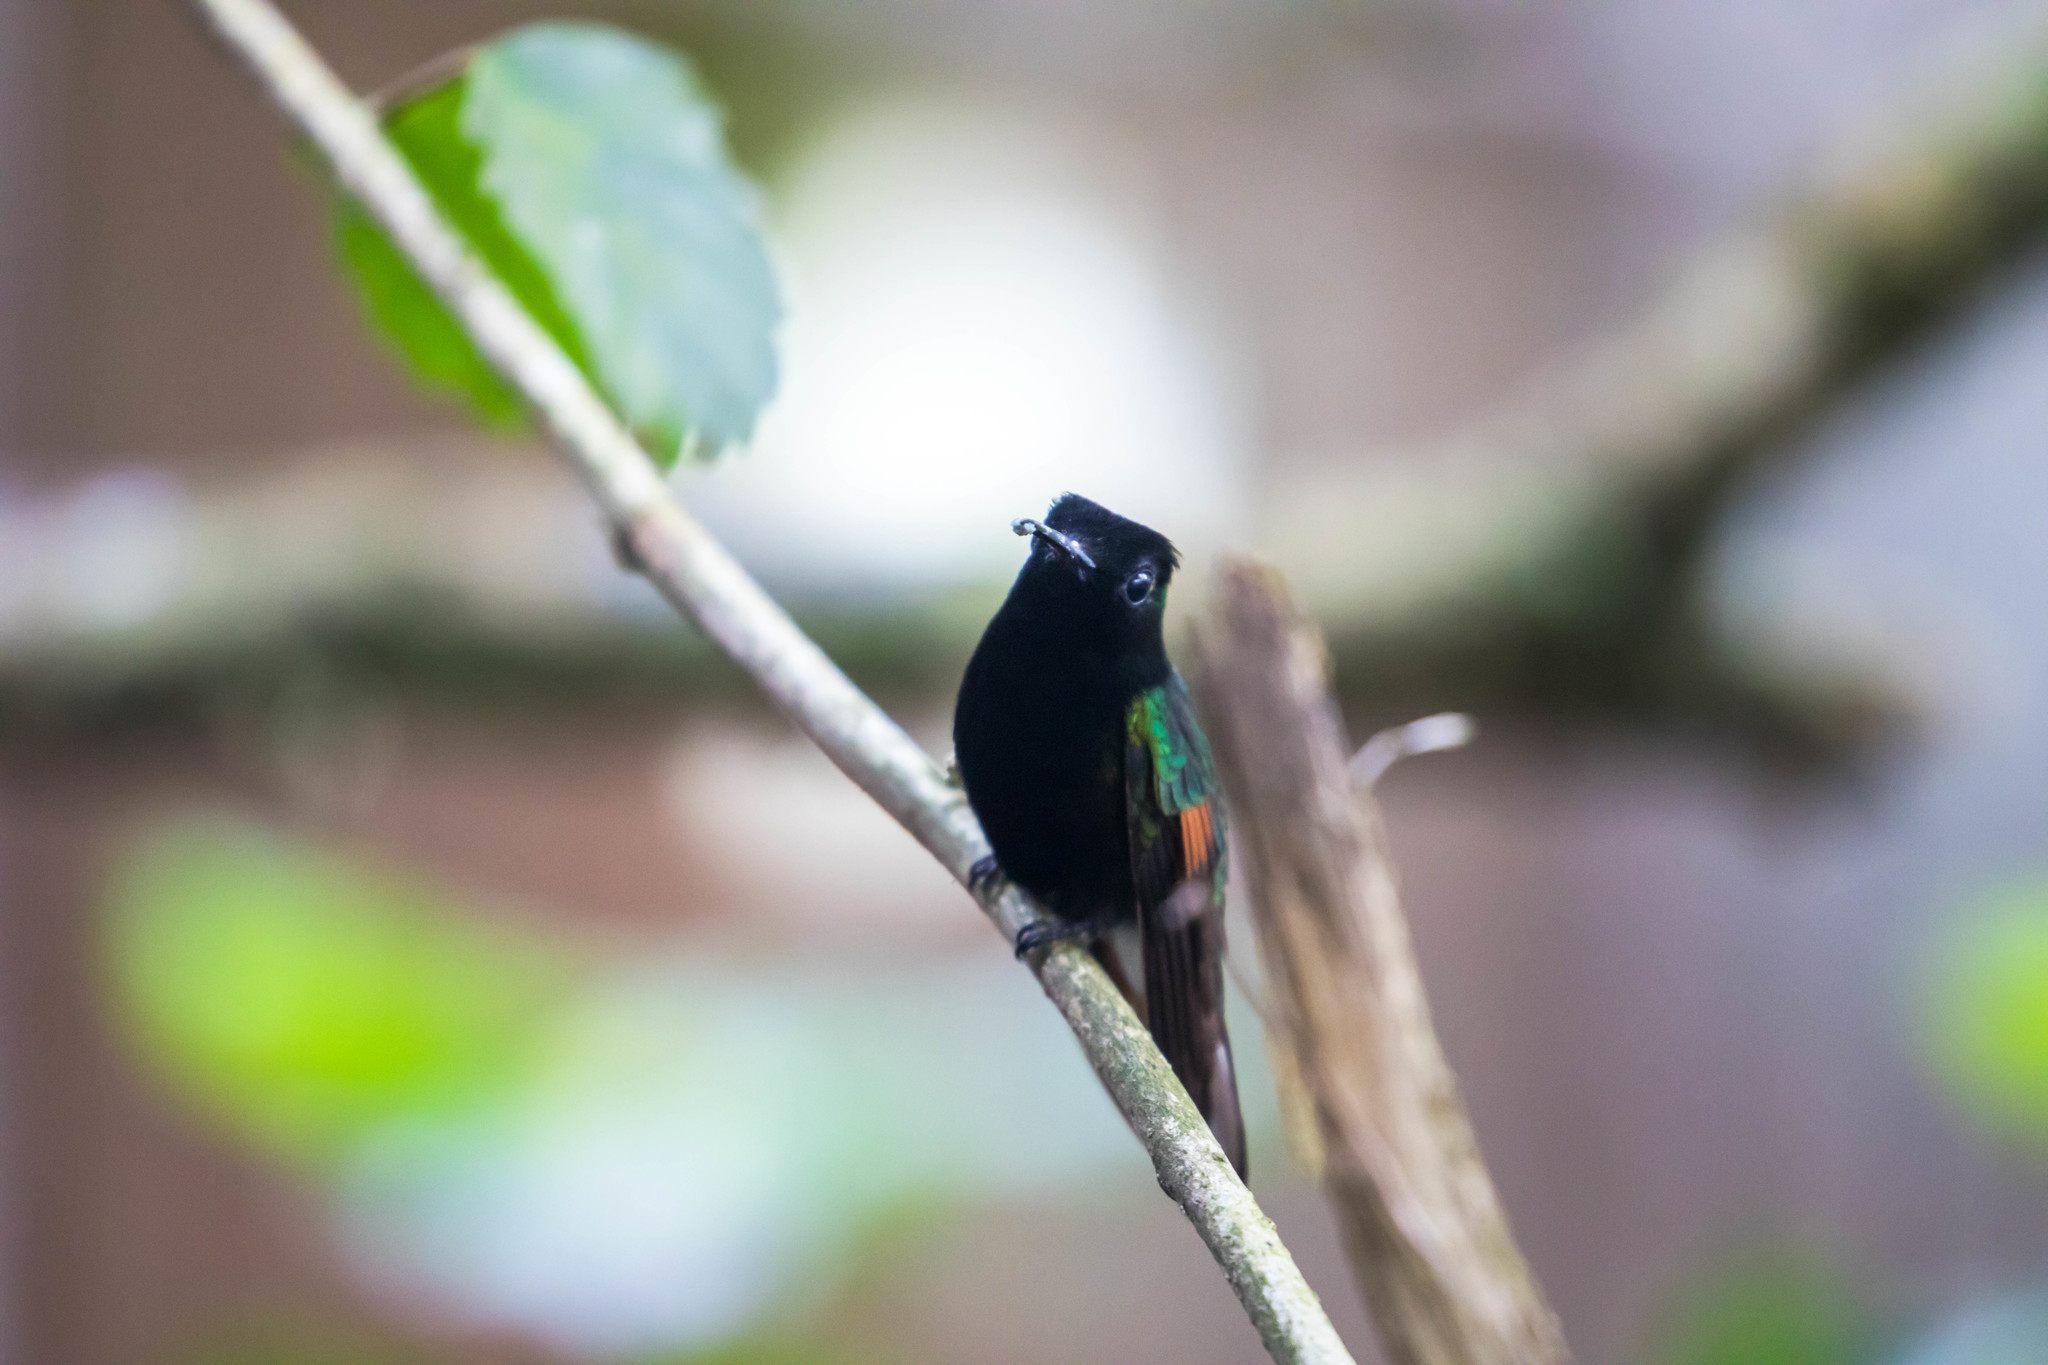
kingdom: Animalia
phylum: Chordata
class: Aves
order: Apodiformes
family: Trochilidae
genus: Eupherusa
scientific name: Eupherusa nigriventris
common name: Black-bellied hummingbird
